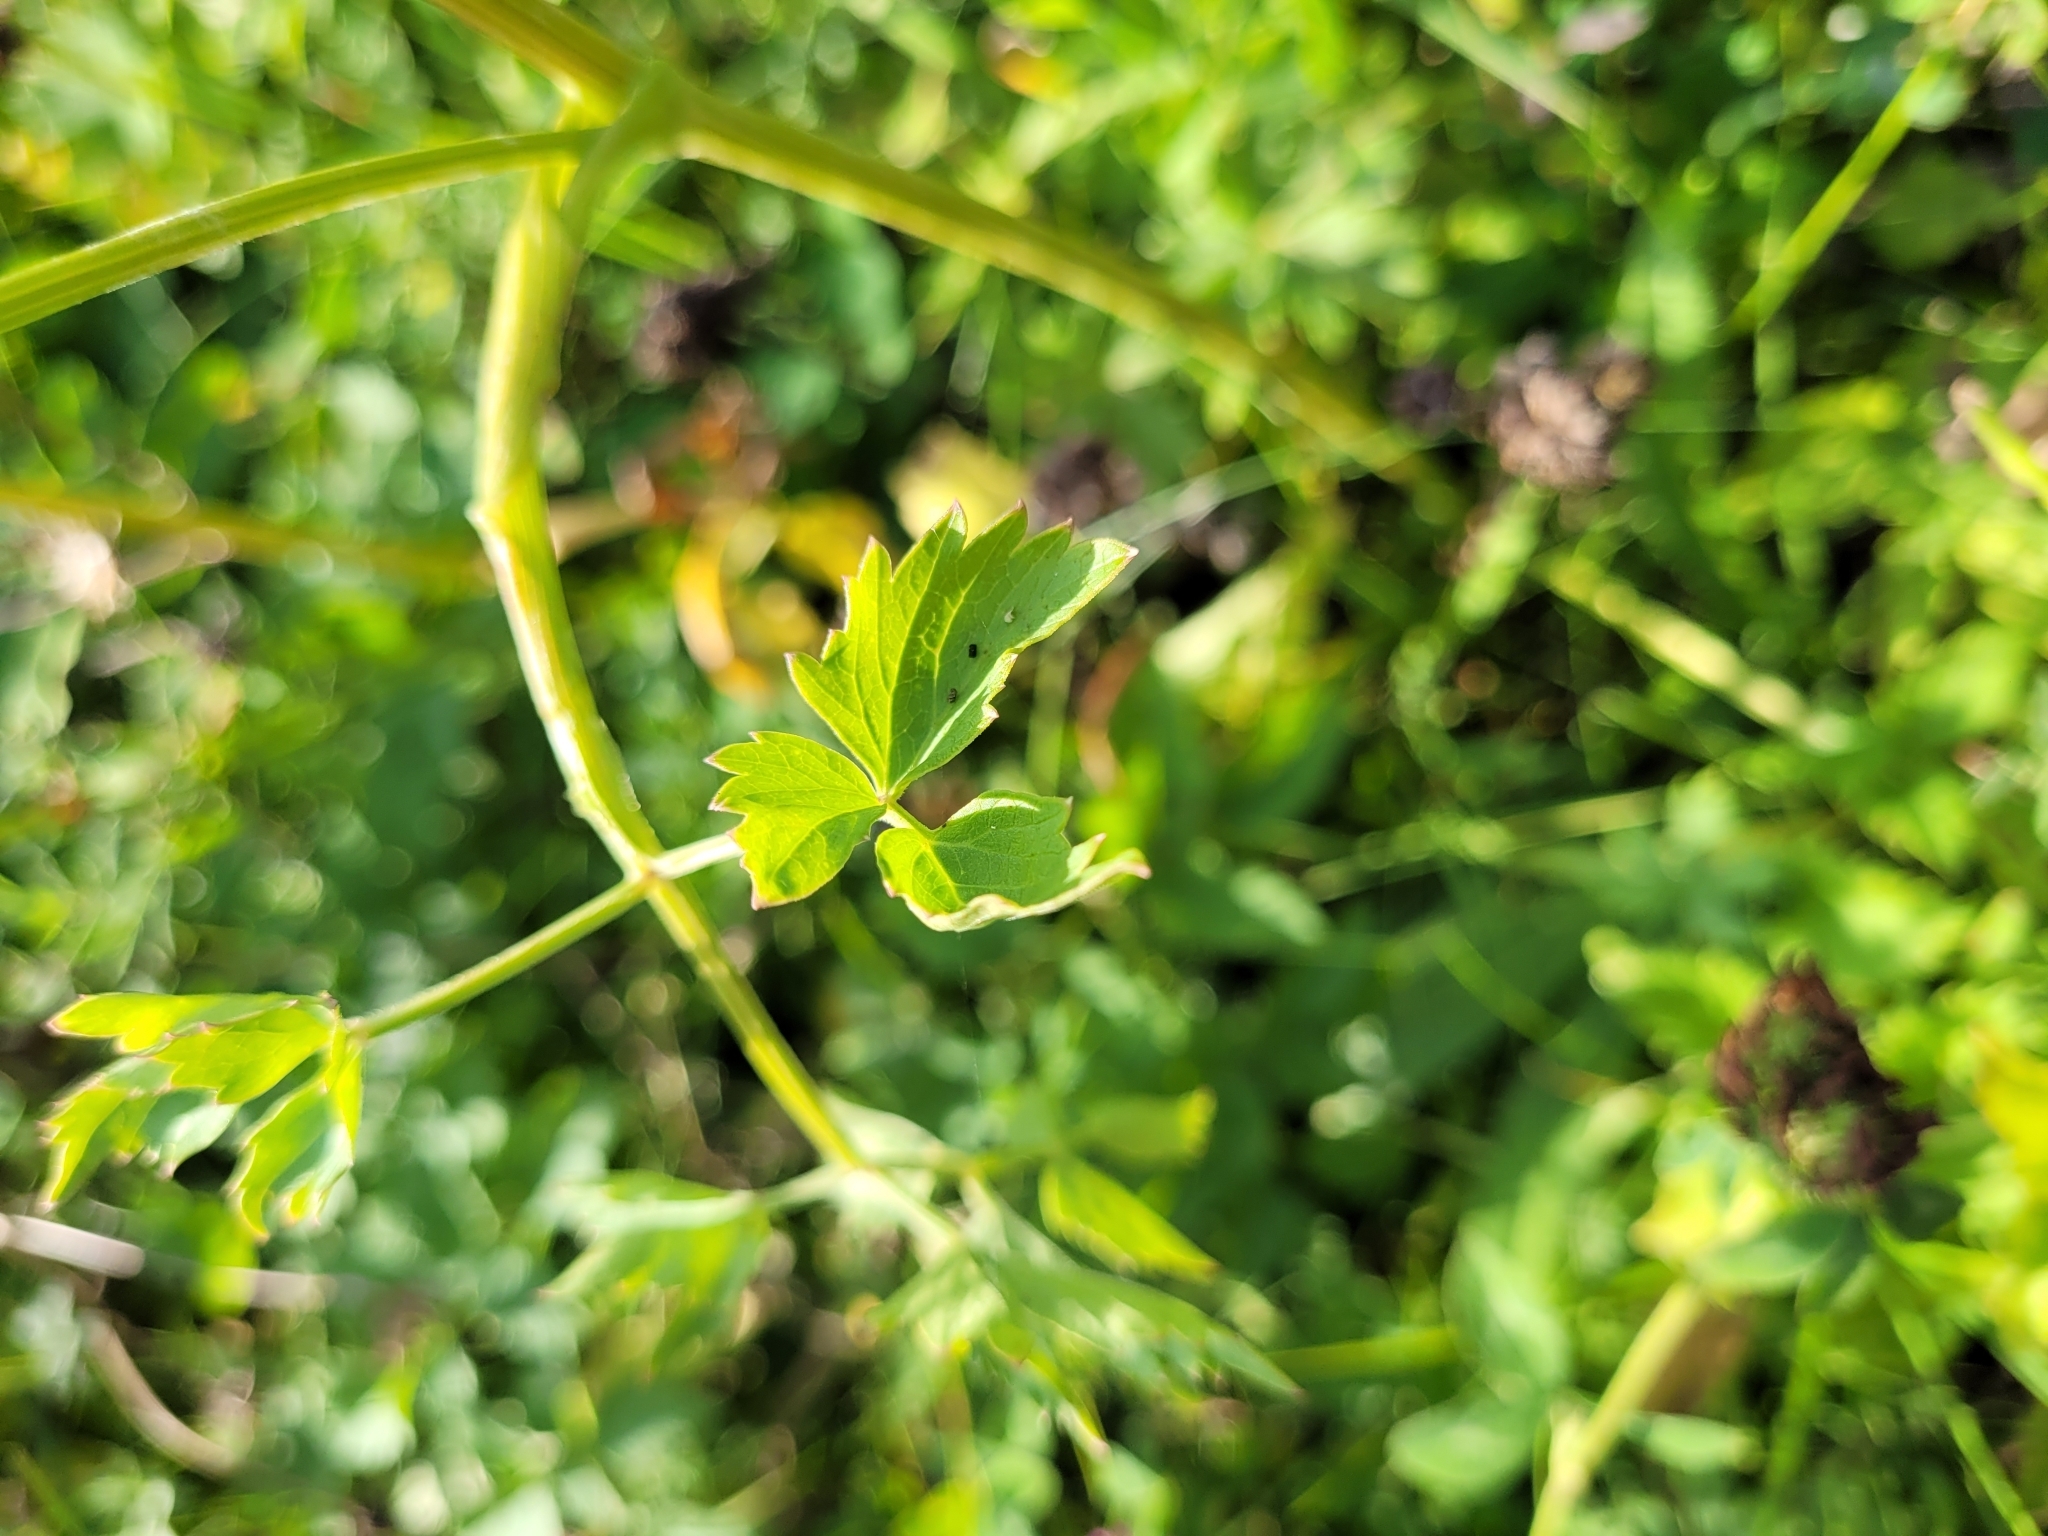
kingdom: Plantae
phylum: Tracheophyta
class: Magnoliopsida
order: Apiales
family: Apiaceae
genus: Ostericum
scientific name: Ostericum palustre
